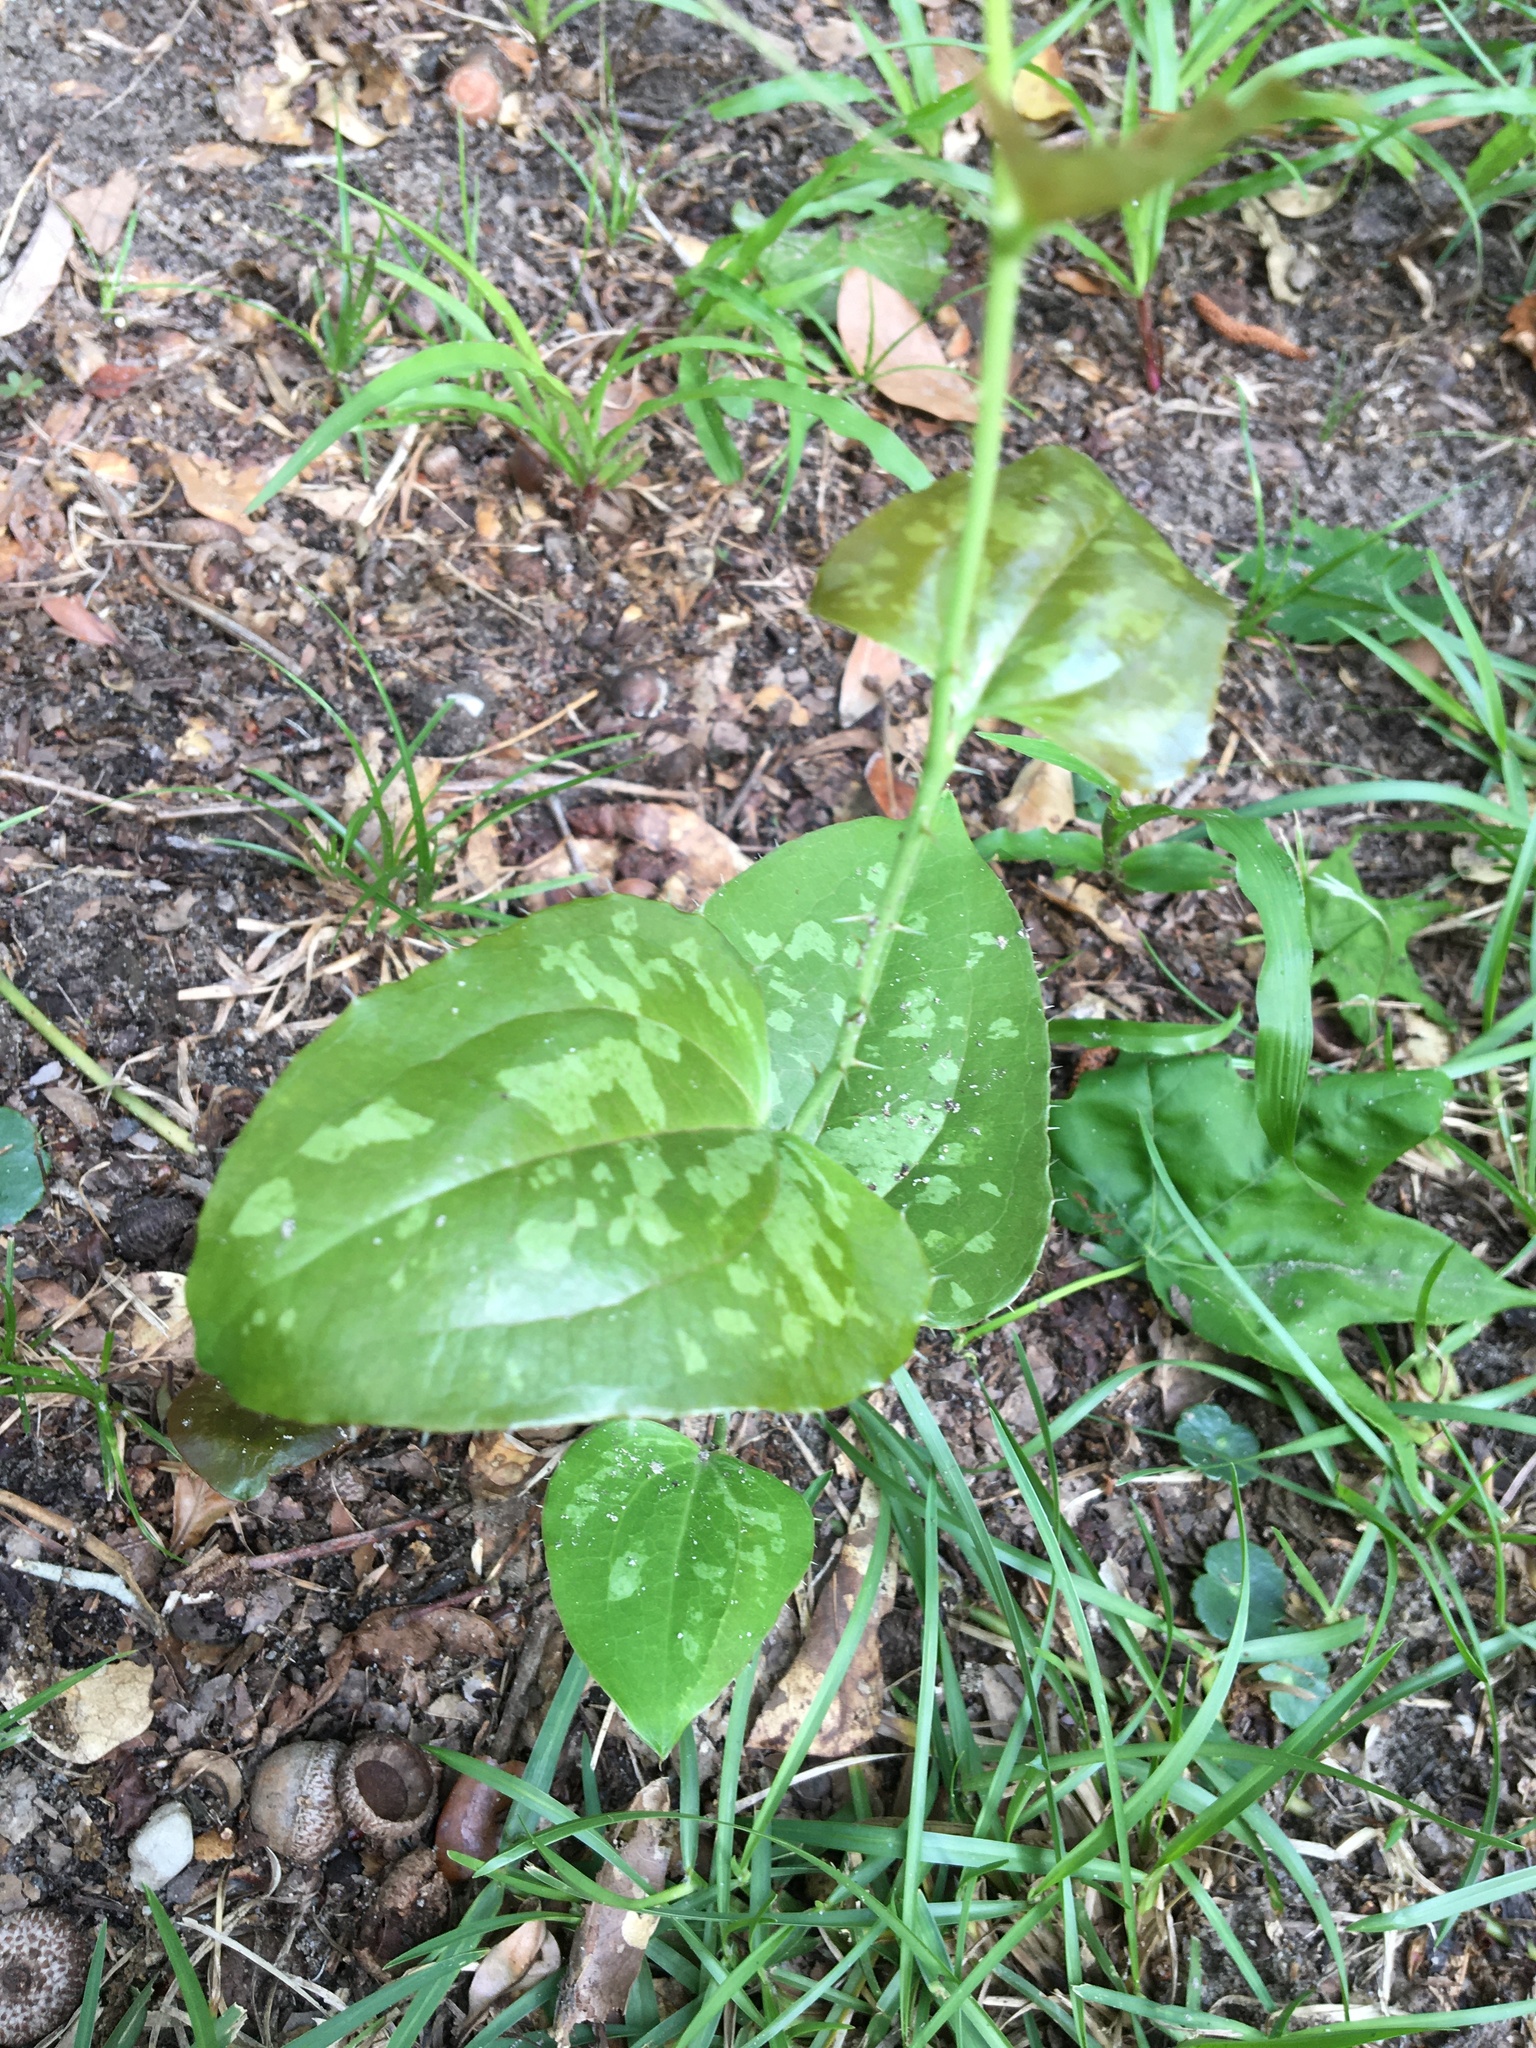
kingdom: Plantae
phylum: Tracheophyta
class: Liliopsida
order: Liliales
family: Smilacaceae
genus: Smilax
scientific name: Smilax bona-nox
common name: Catbrier
